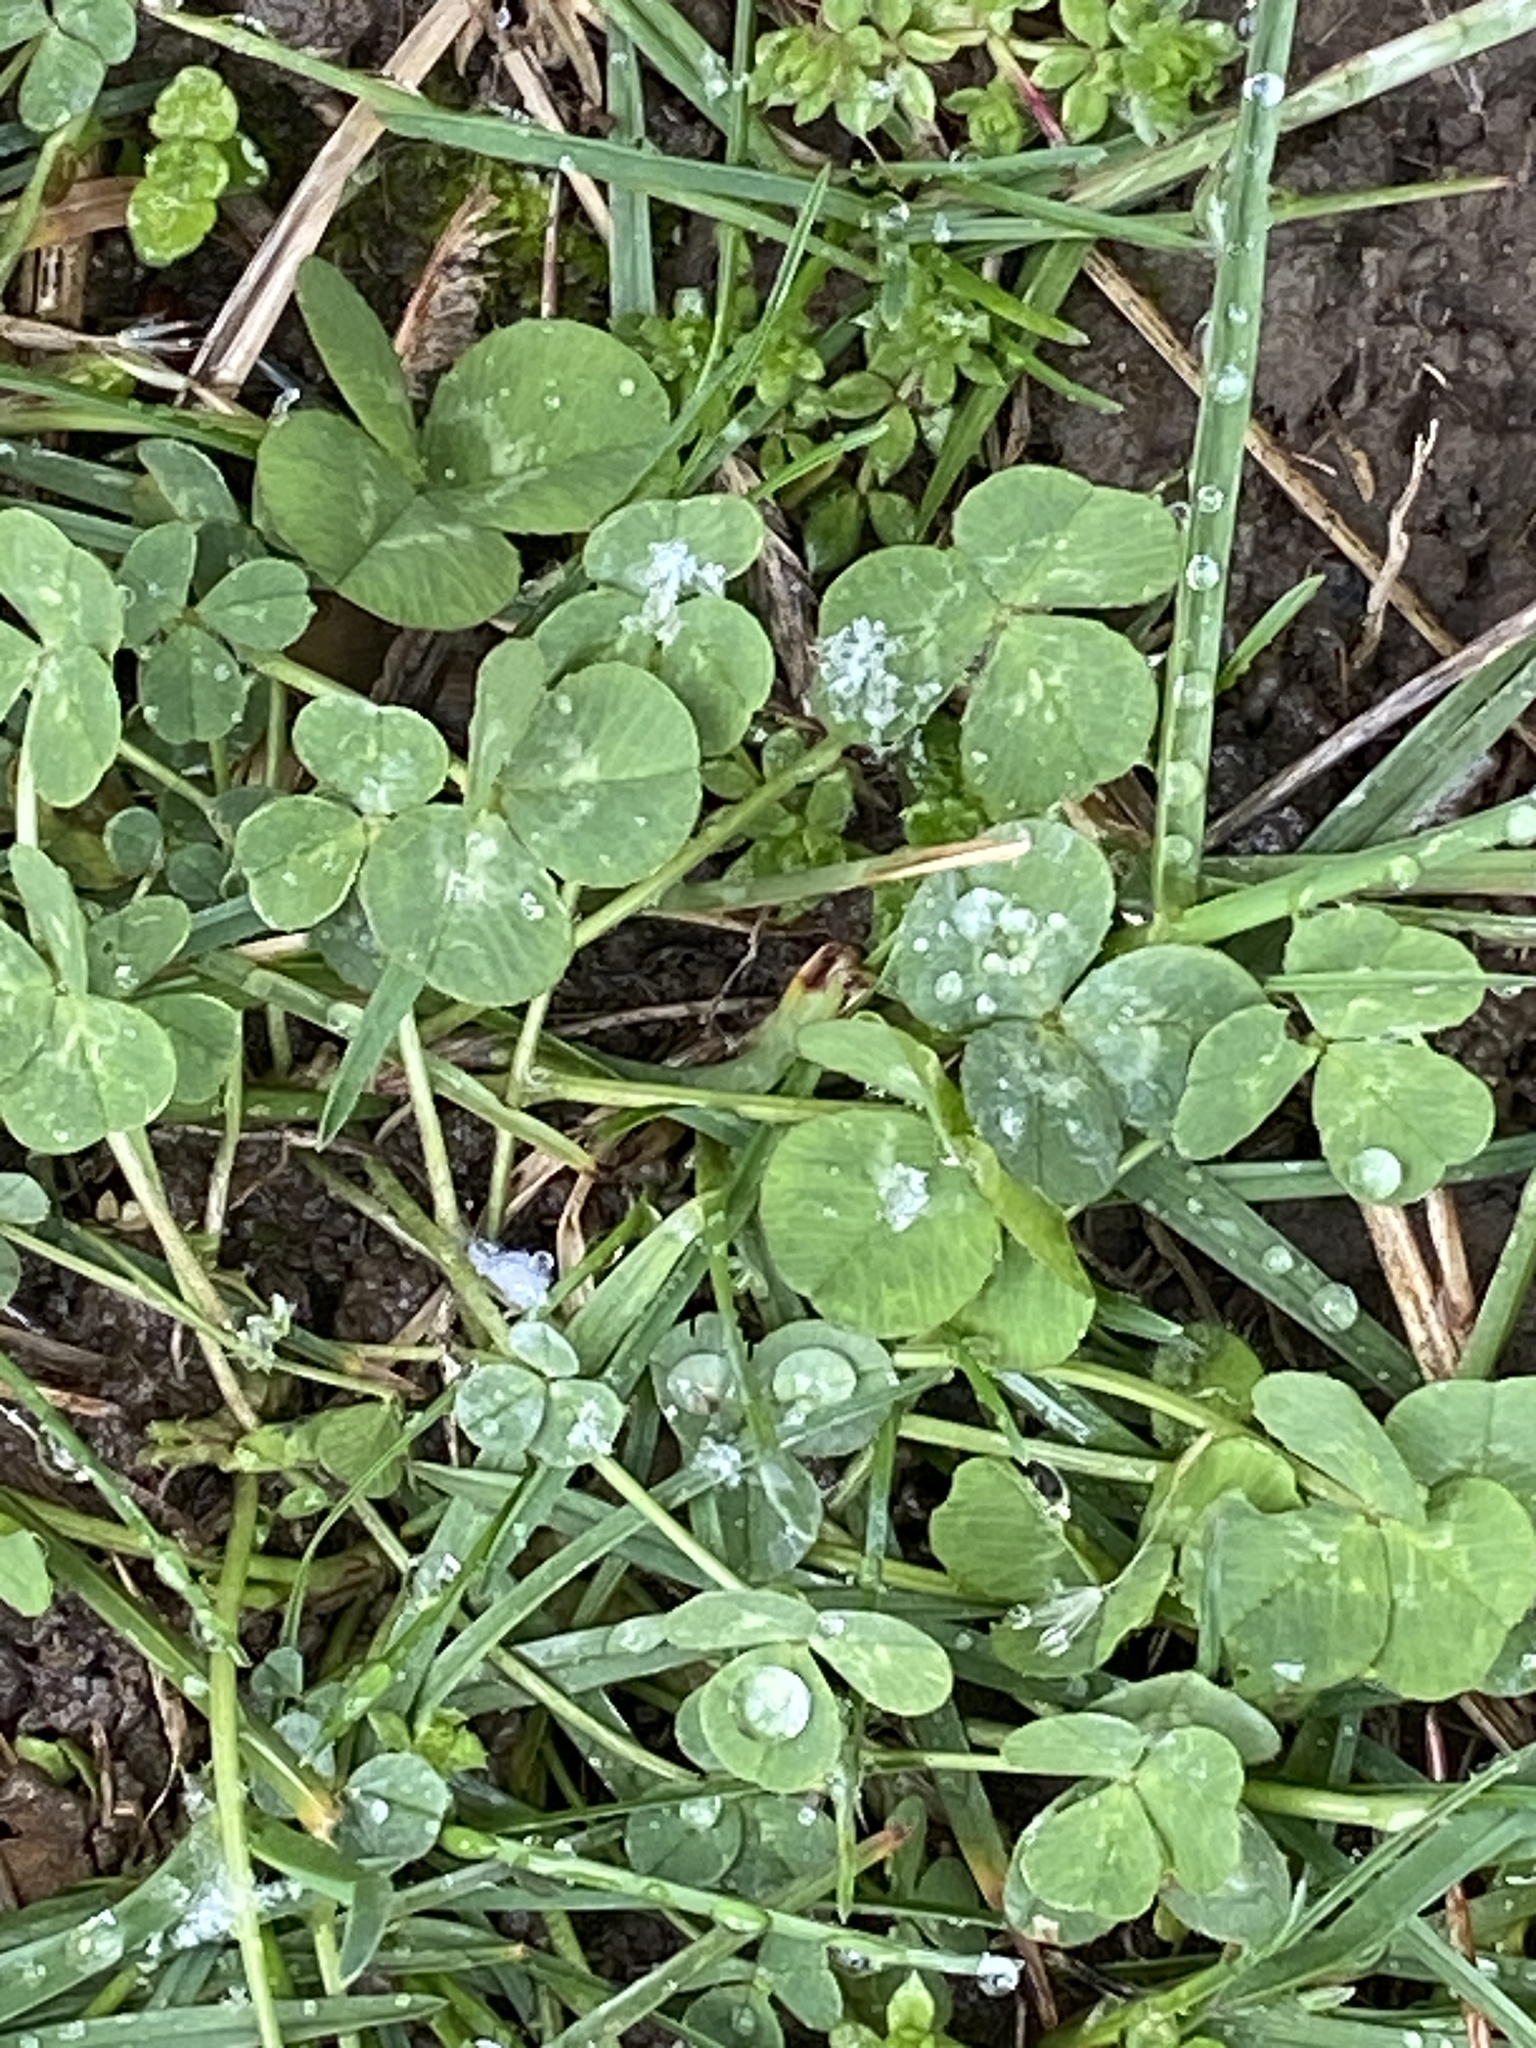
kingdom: Plantae
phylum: Tracheophyta
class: Magnoliopsida
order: Fabales
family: Fabaceae
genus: Trifolium
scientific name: Trifolium repens
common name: White clover
